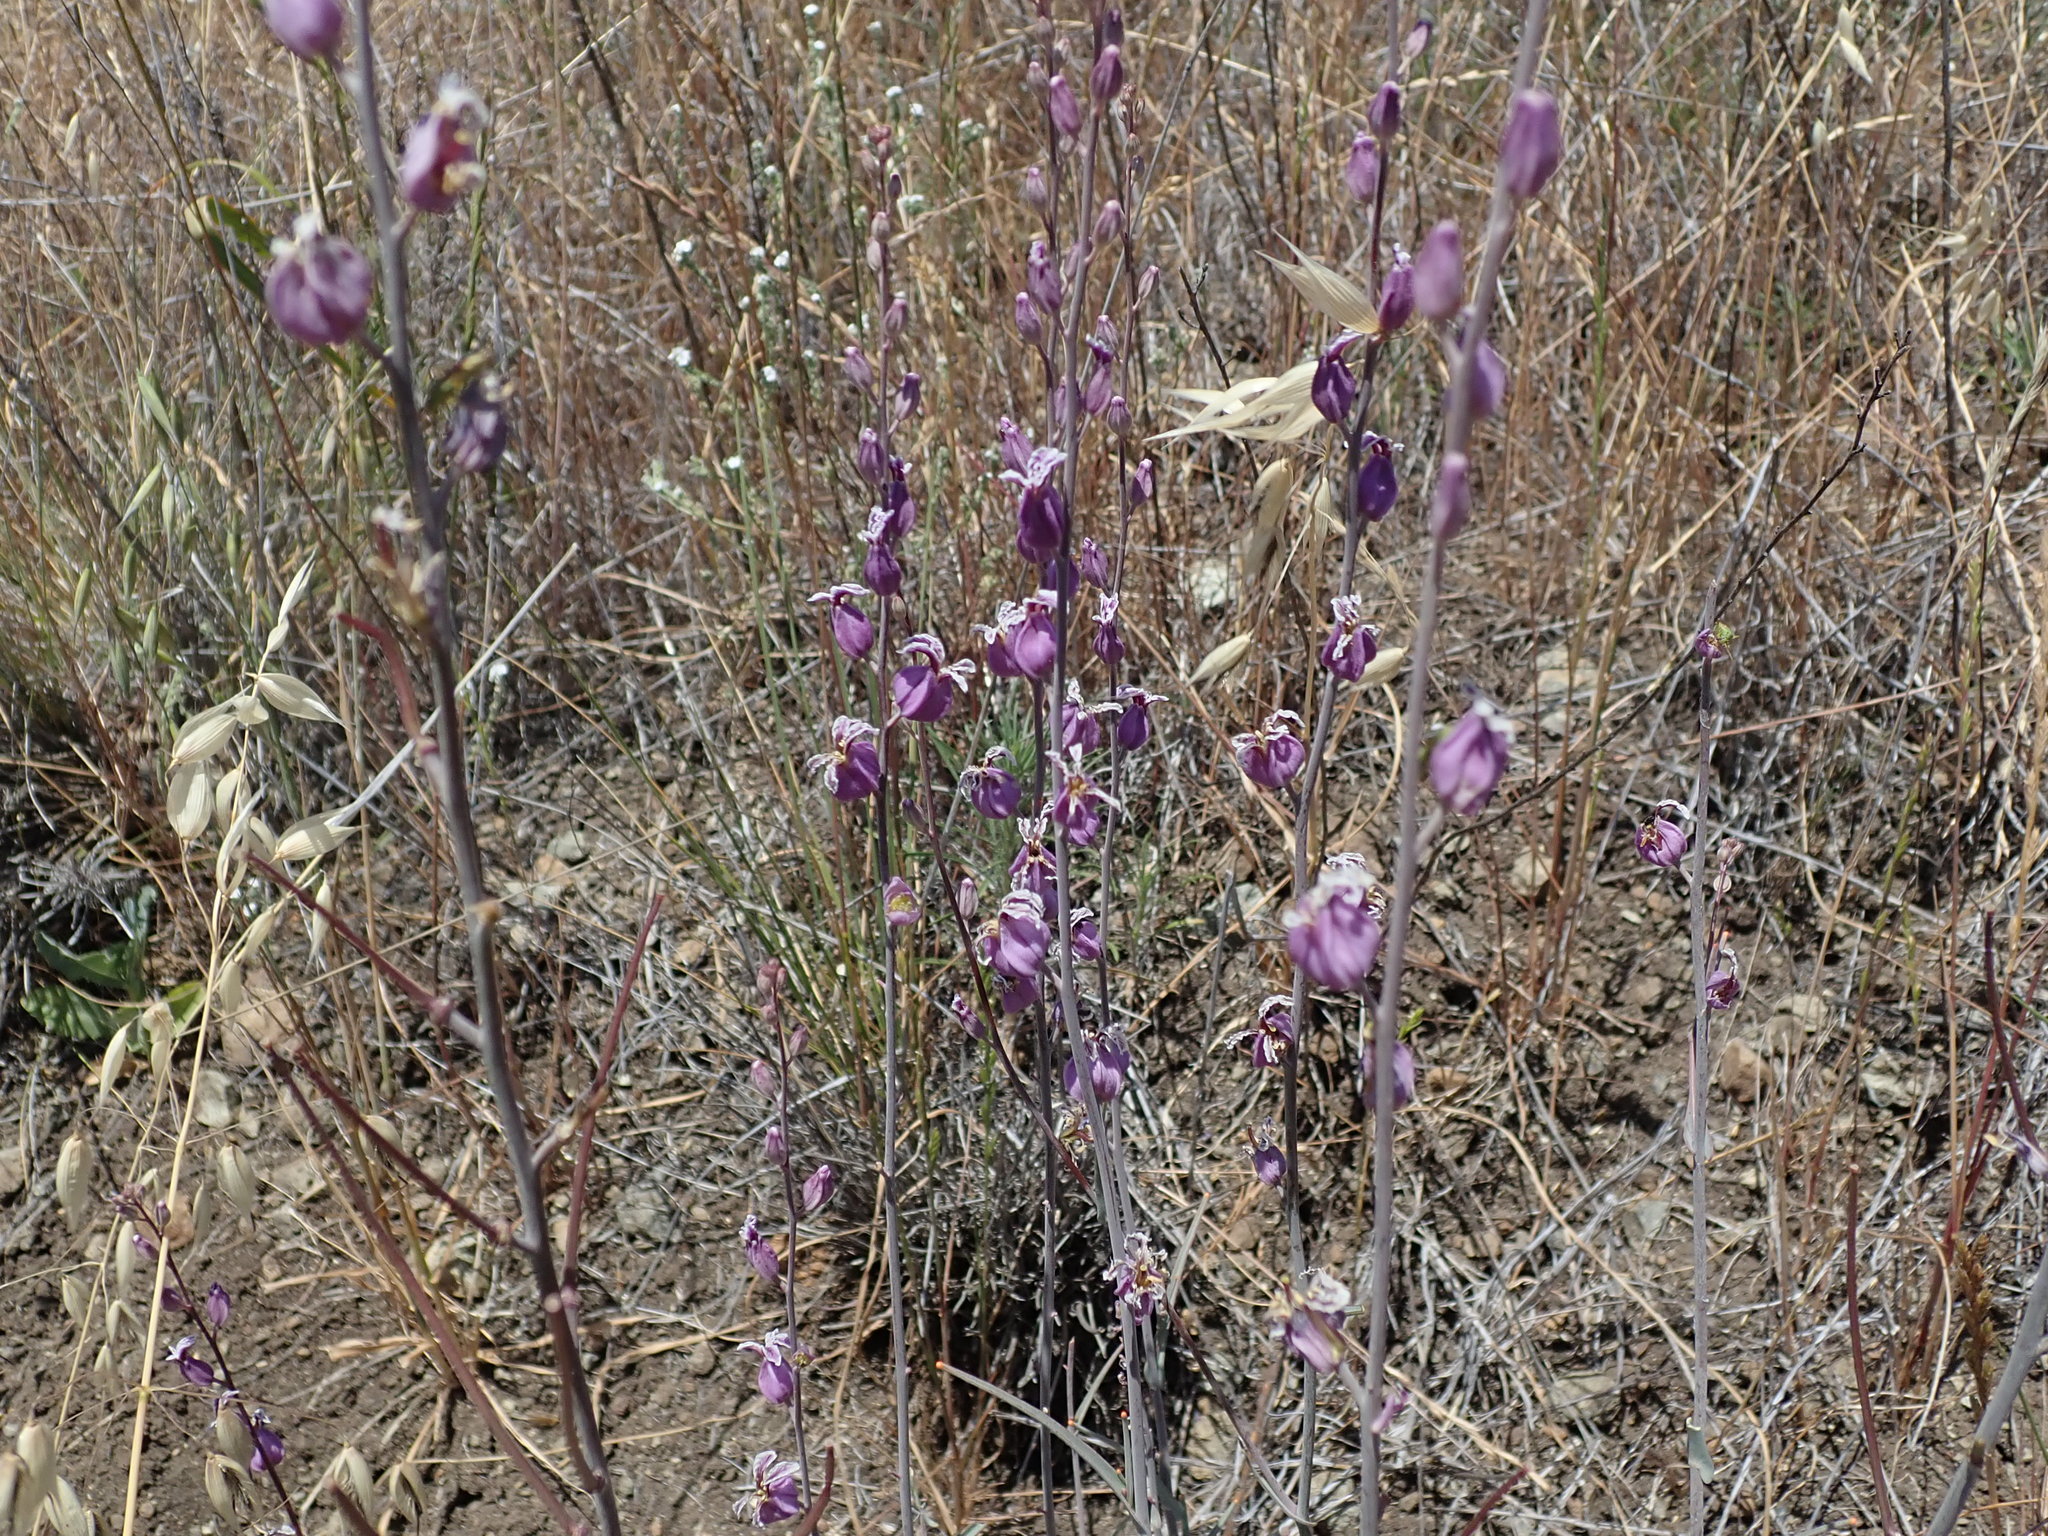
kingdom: Plantae
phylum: Tracheophyta
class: Magnoliopsida
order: Brassicales
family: Brassicaceae
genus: Streptanthus
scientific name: Streptanthus glandulosus
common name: Jewel-flower
